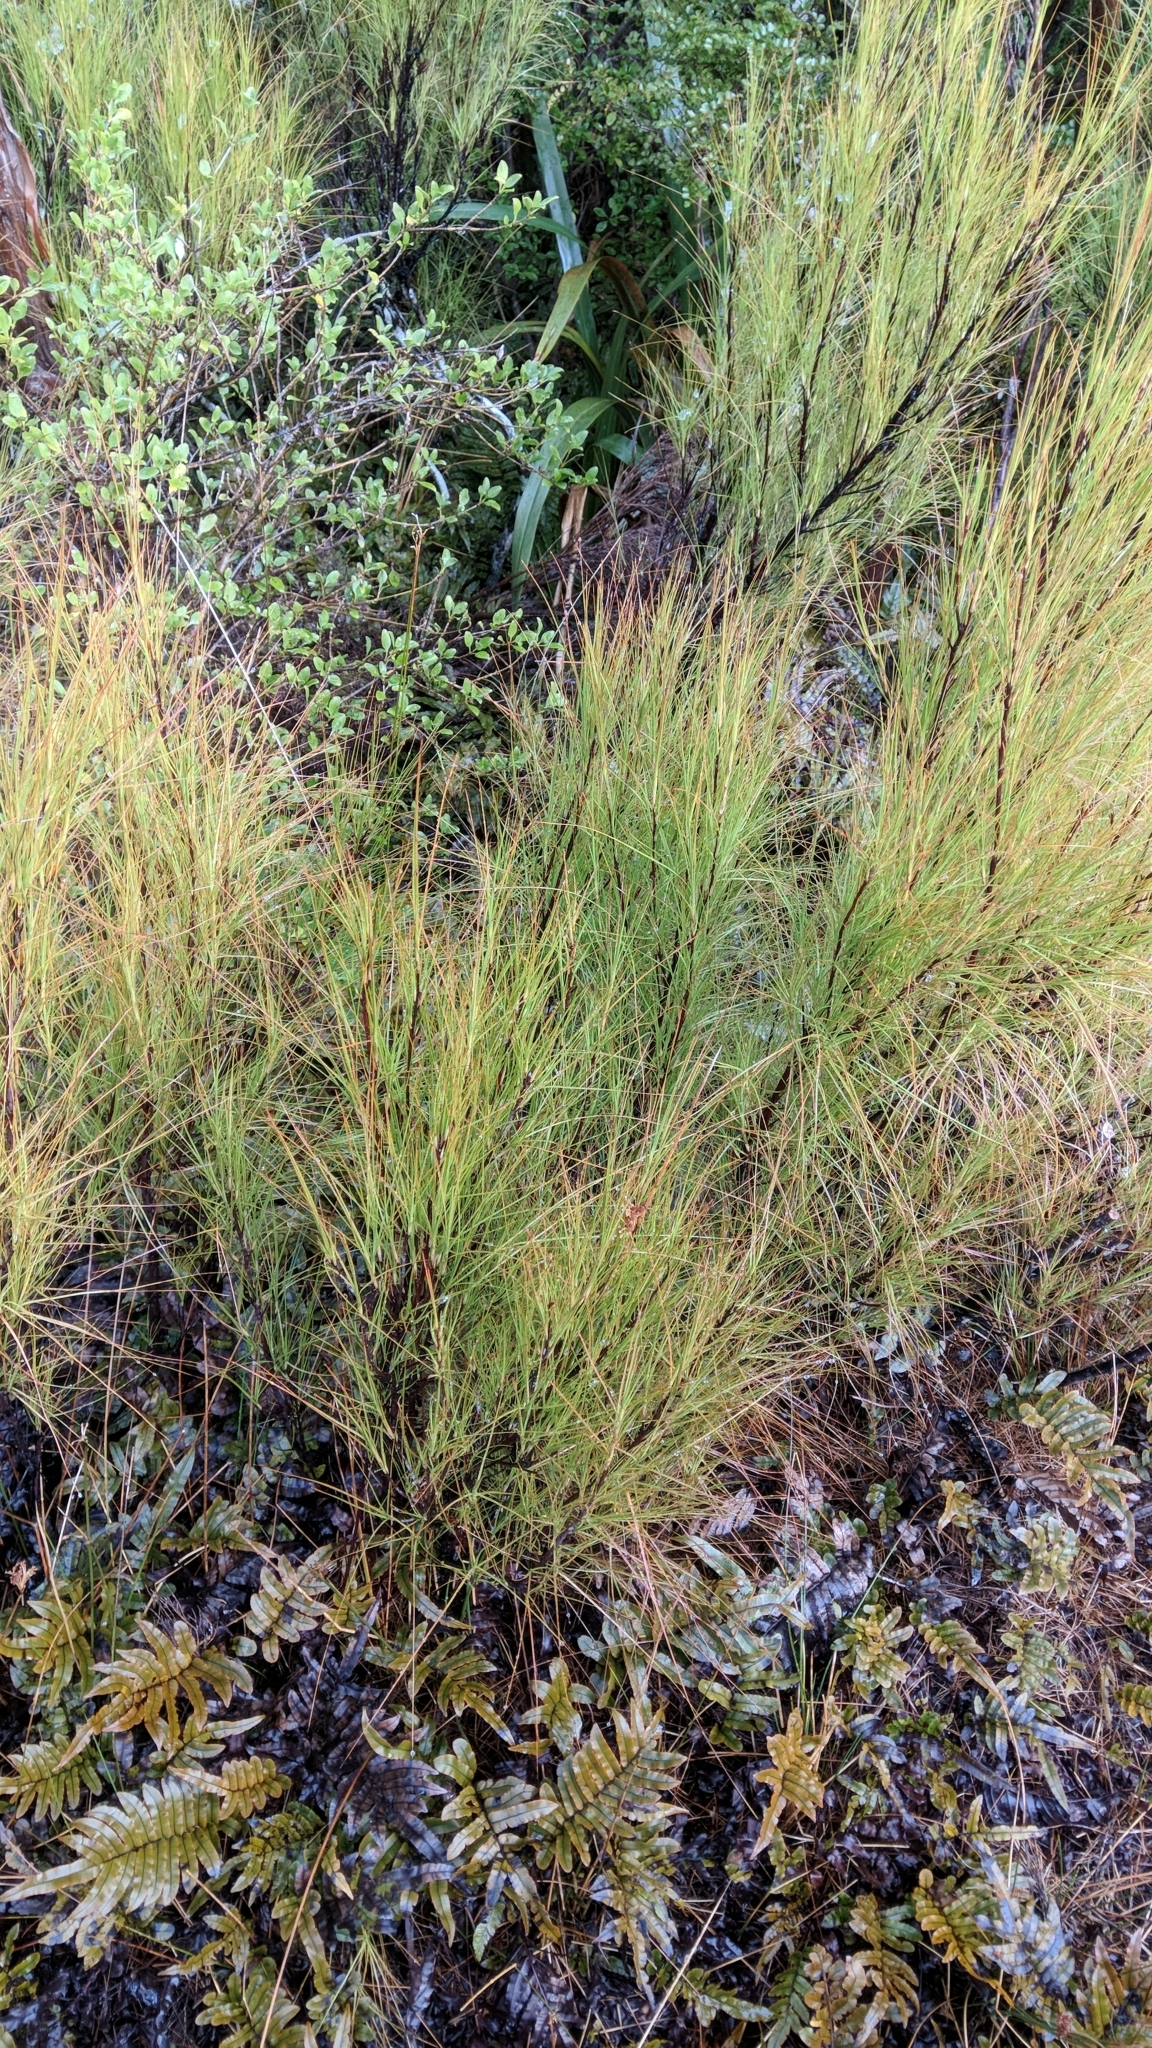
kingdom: Plantae
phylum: Tracheophyta
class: Magnoliopsida
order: Ericales
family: Ericaceae
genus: Dracophyllum
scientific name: Dracophyllum filifolium
